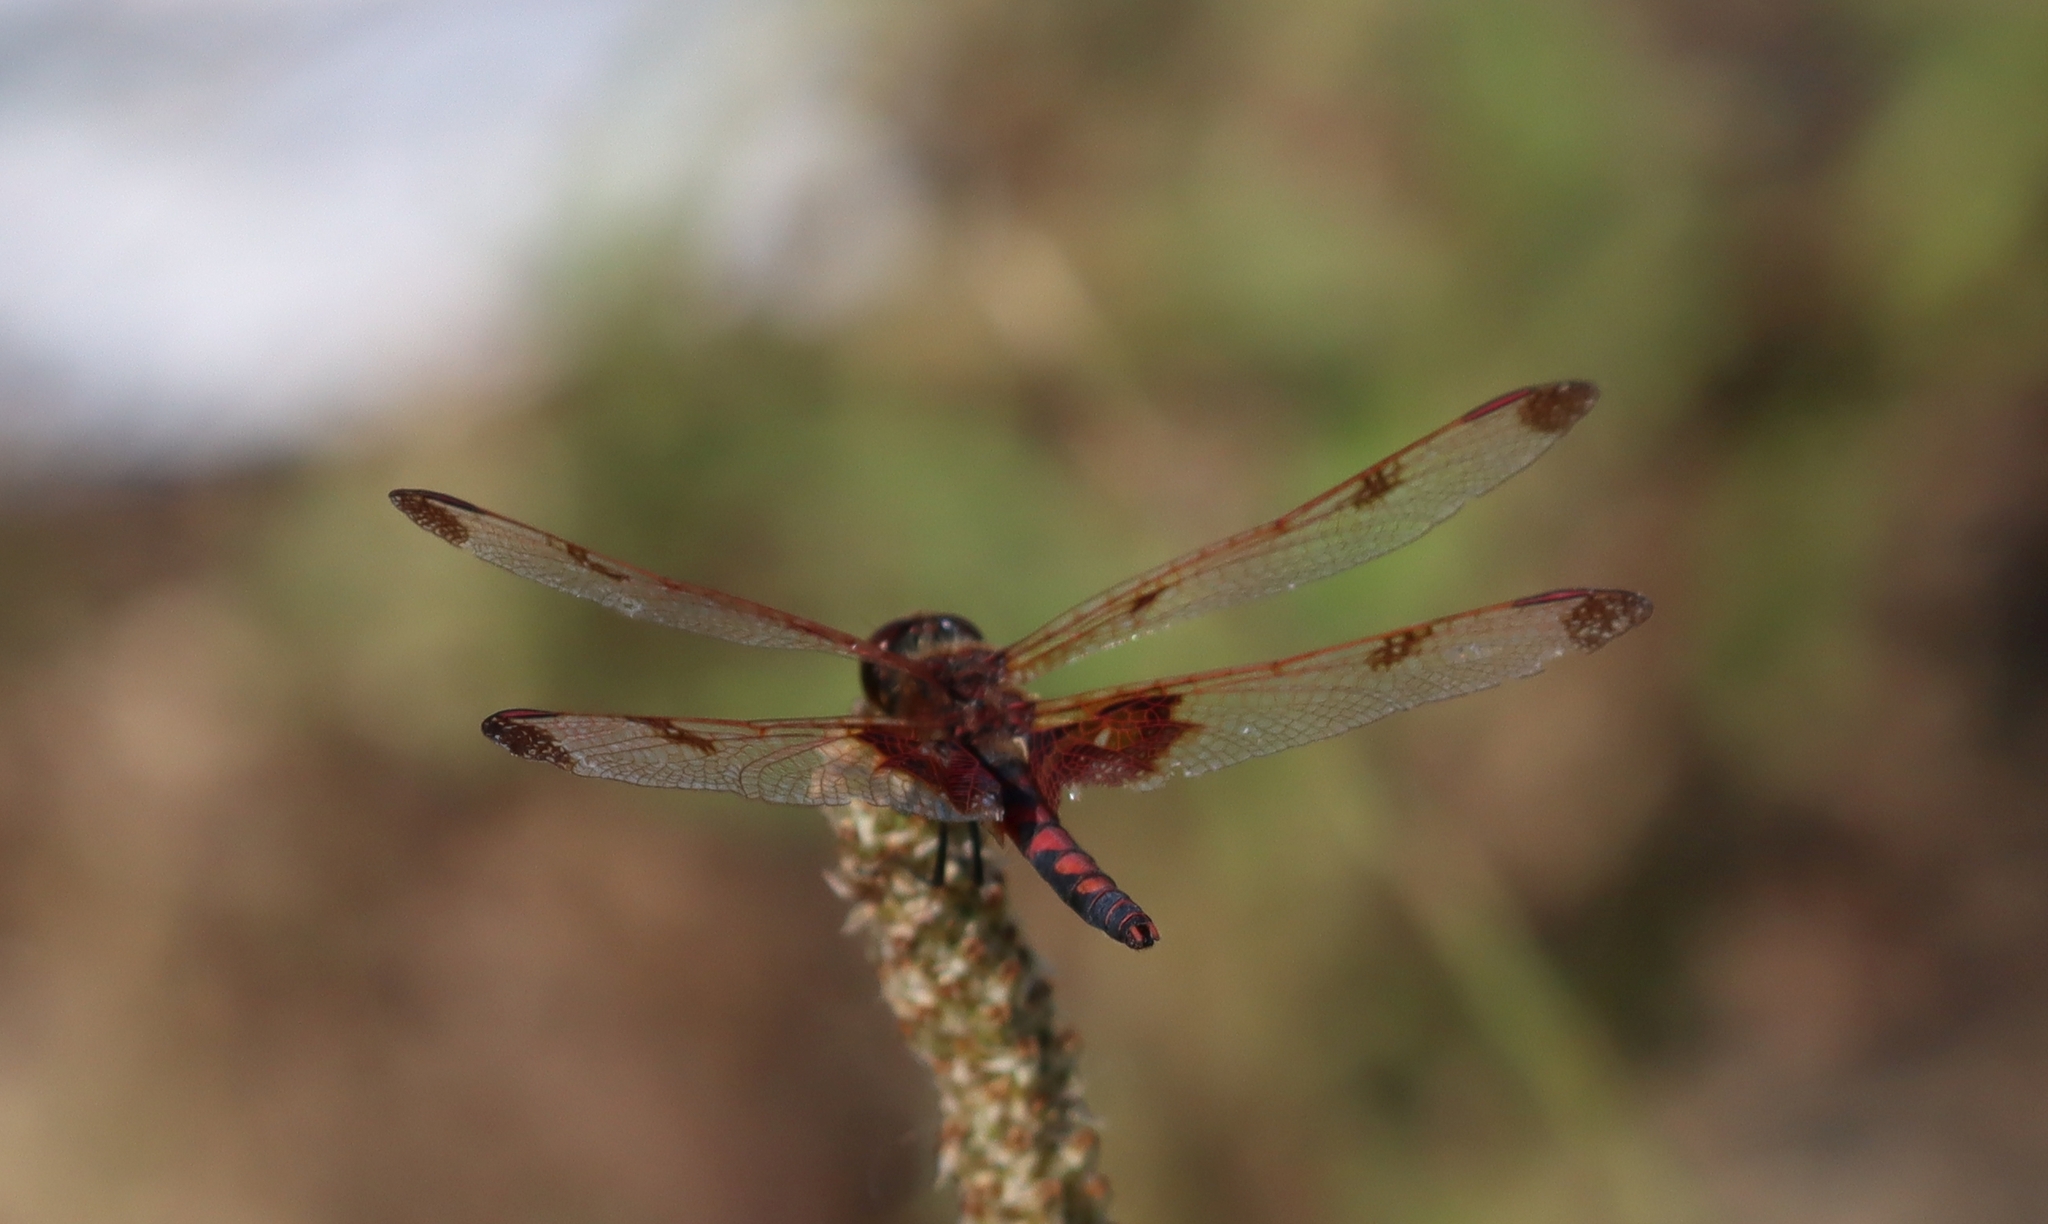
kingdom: Animalia
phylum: Arthropoda
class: Insecta
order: Odonata
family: Libellulidae
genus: Celithemis
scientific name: Celithemis elisa
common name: Calico pennant
